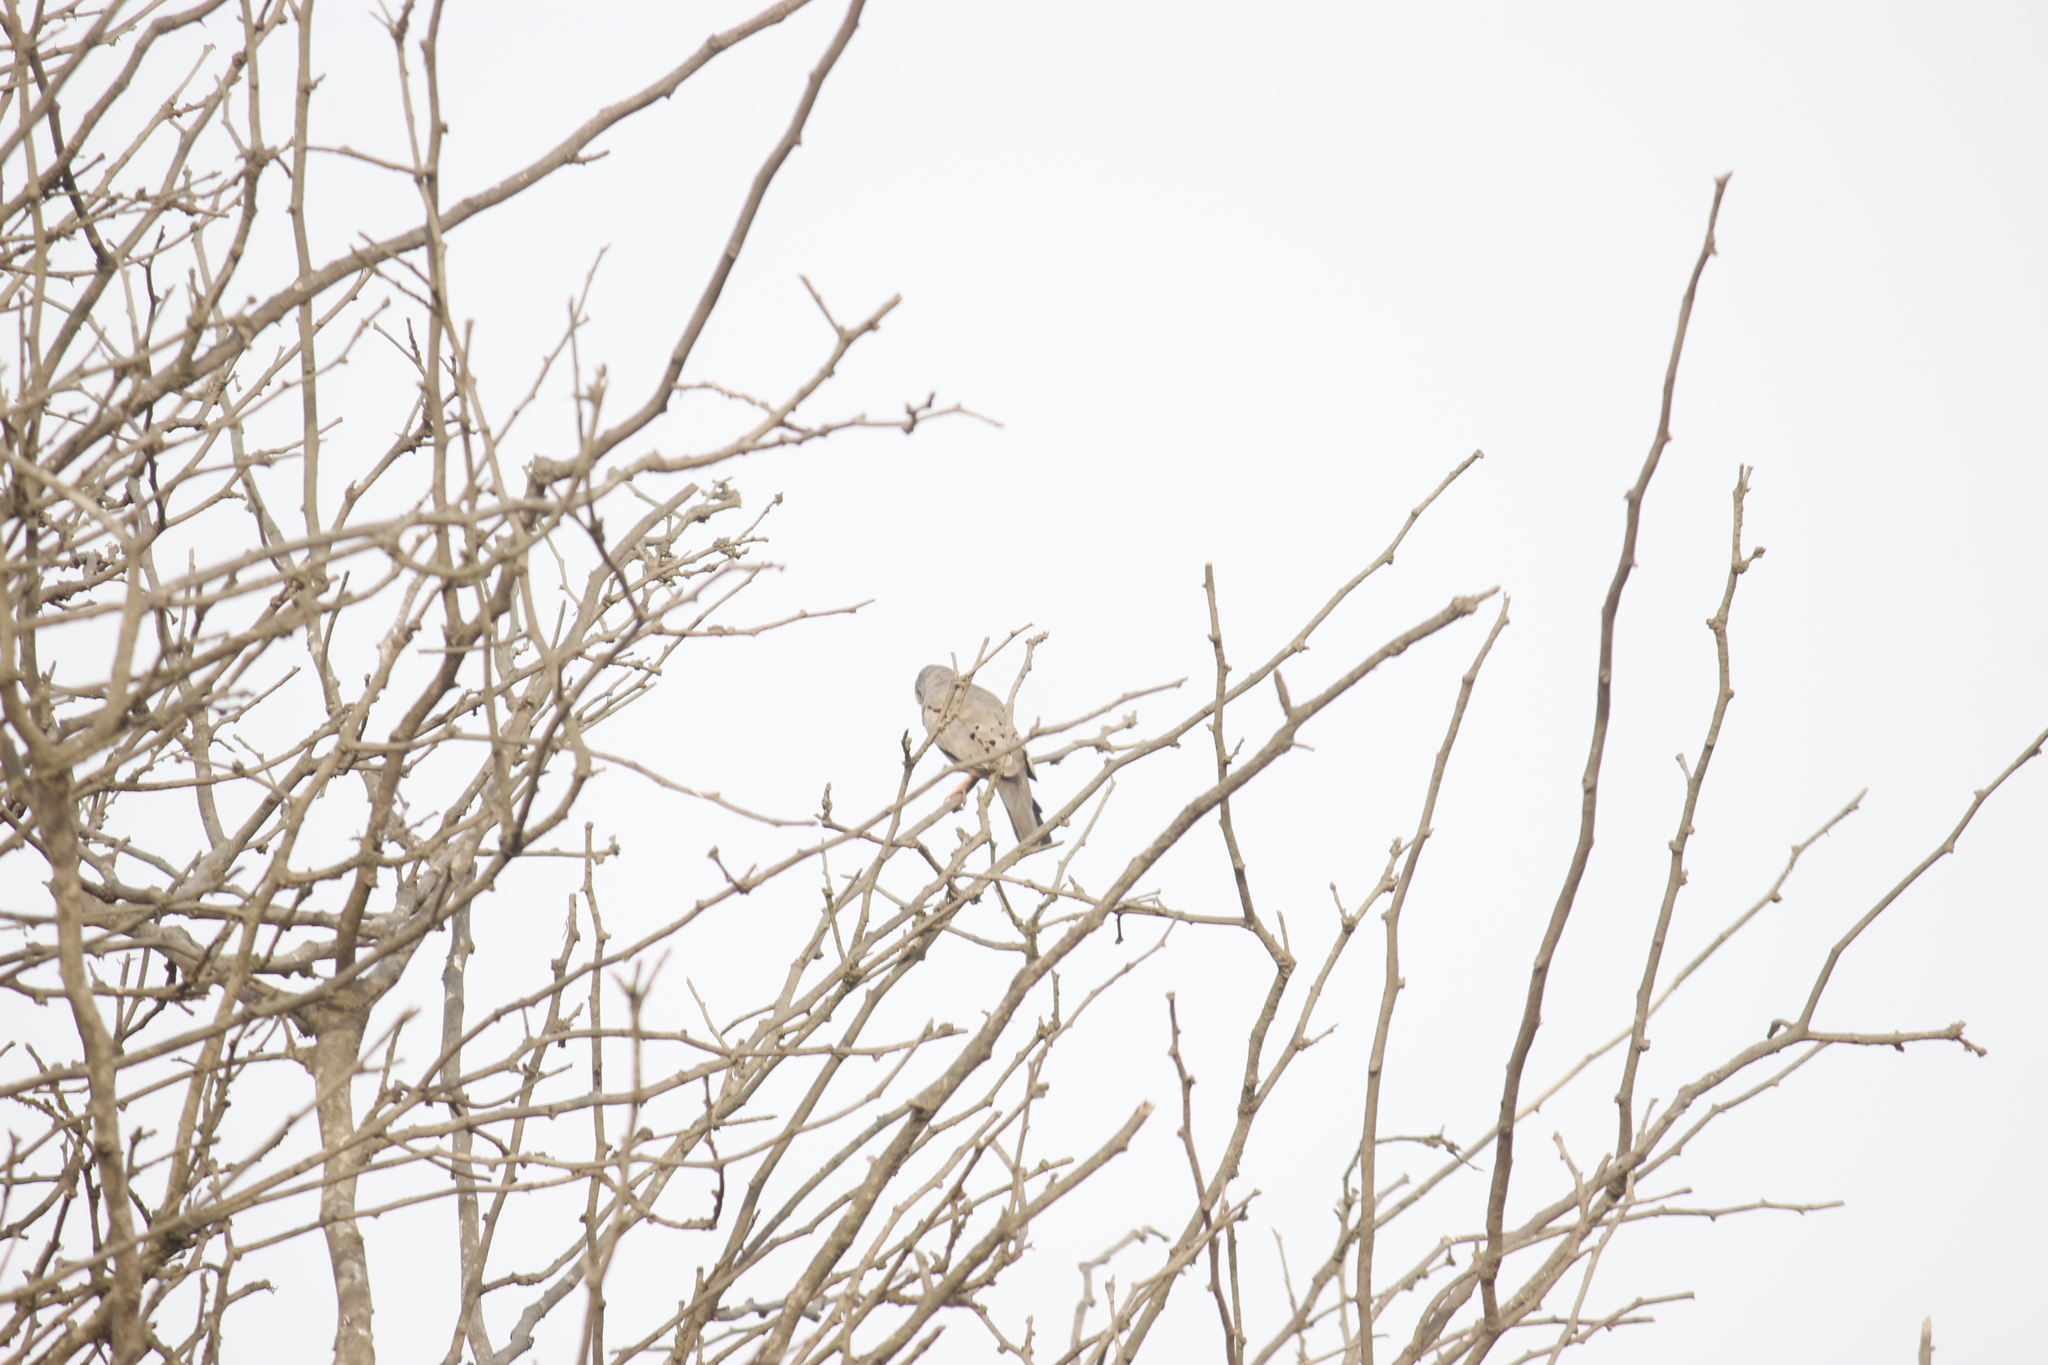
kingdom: Animalia
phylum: Chordata
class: Aves
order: Columbiformes
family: Columbidae
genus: Columbina
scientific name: Columbina cruziana
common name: Croaking ground dove
